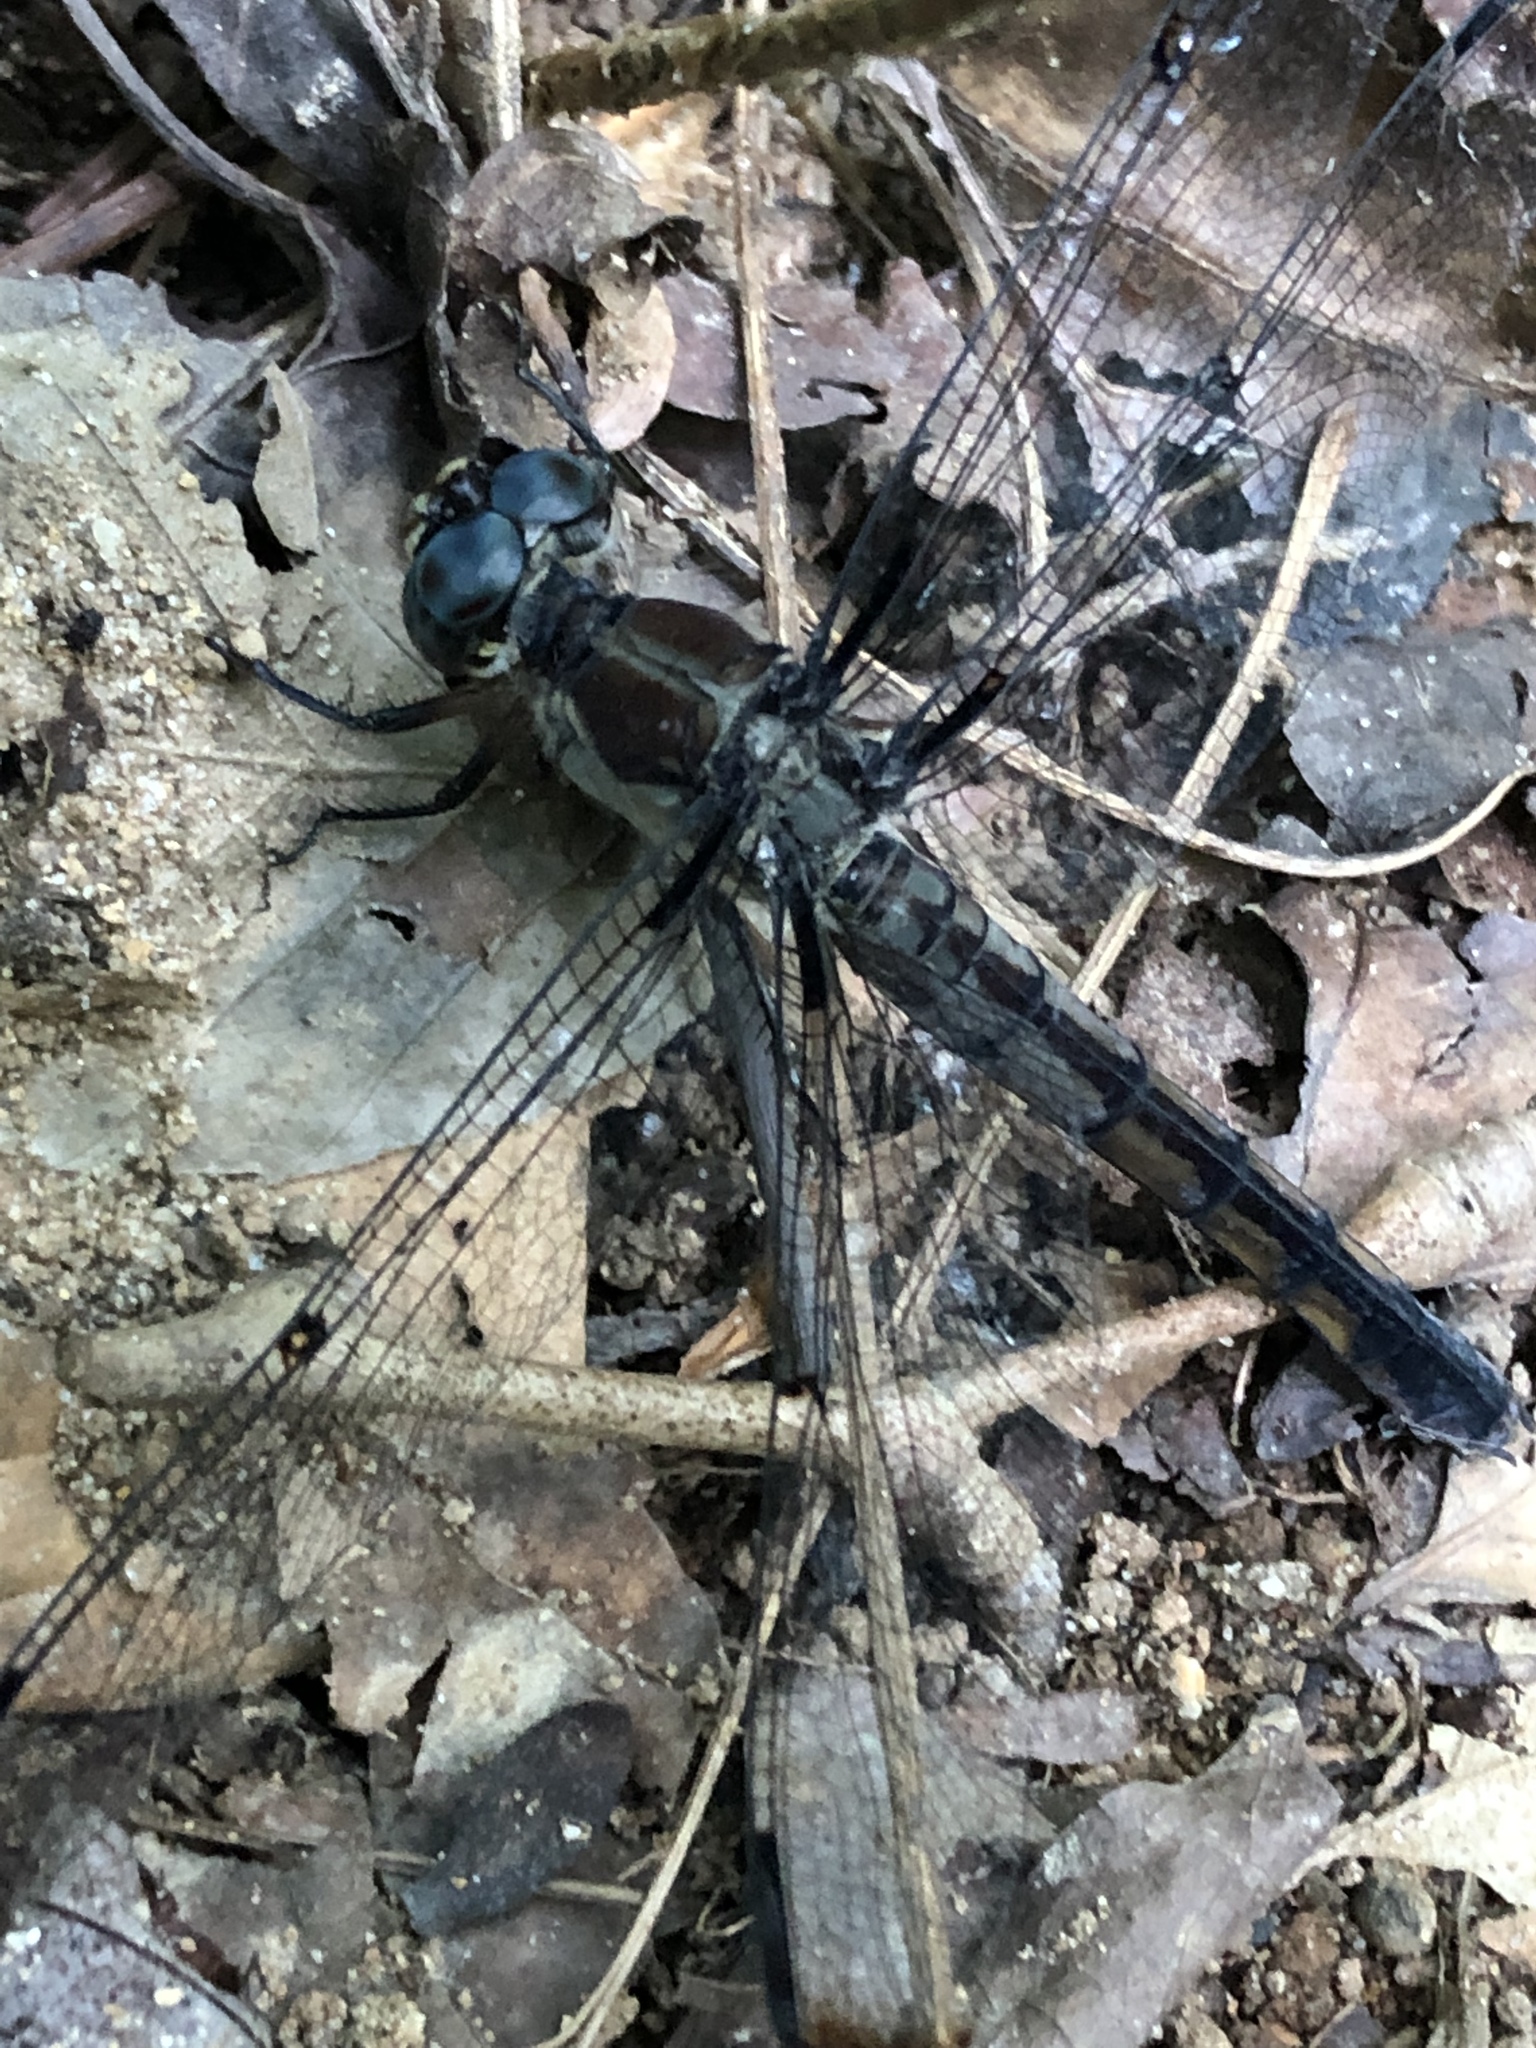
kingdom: Animalia
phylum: Arthropoda
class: Insecta
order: Odonata
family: Libellulidae
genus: Libellula
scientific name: Libellula vibrans
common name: Great blue skimmer
